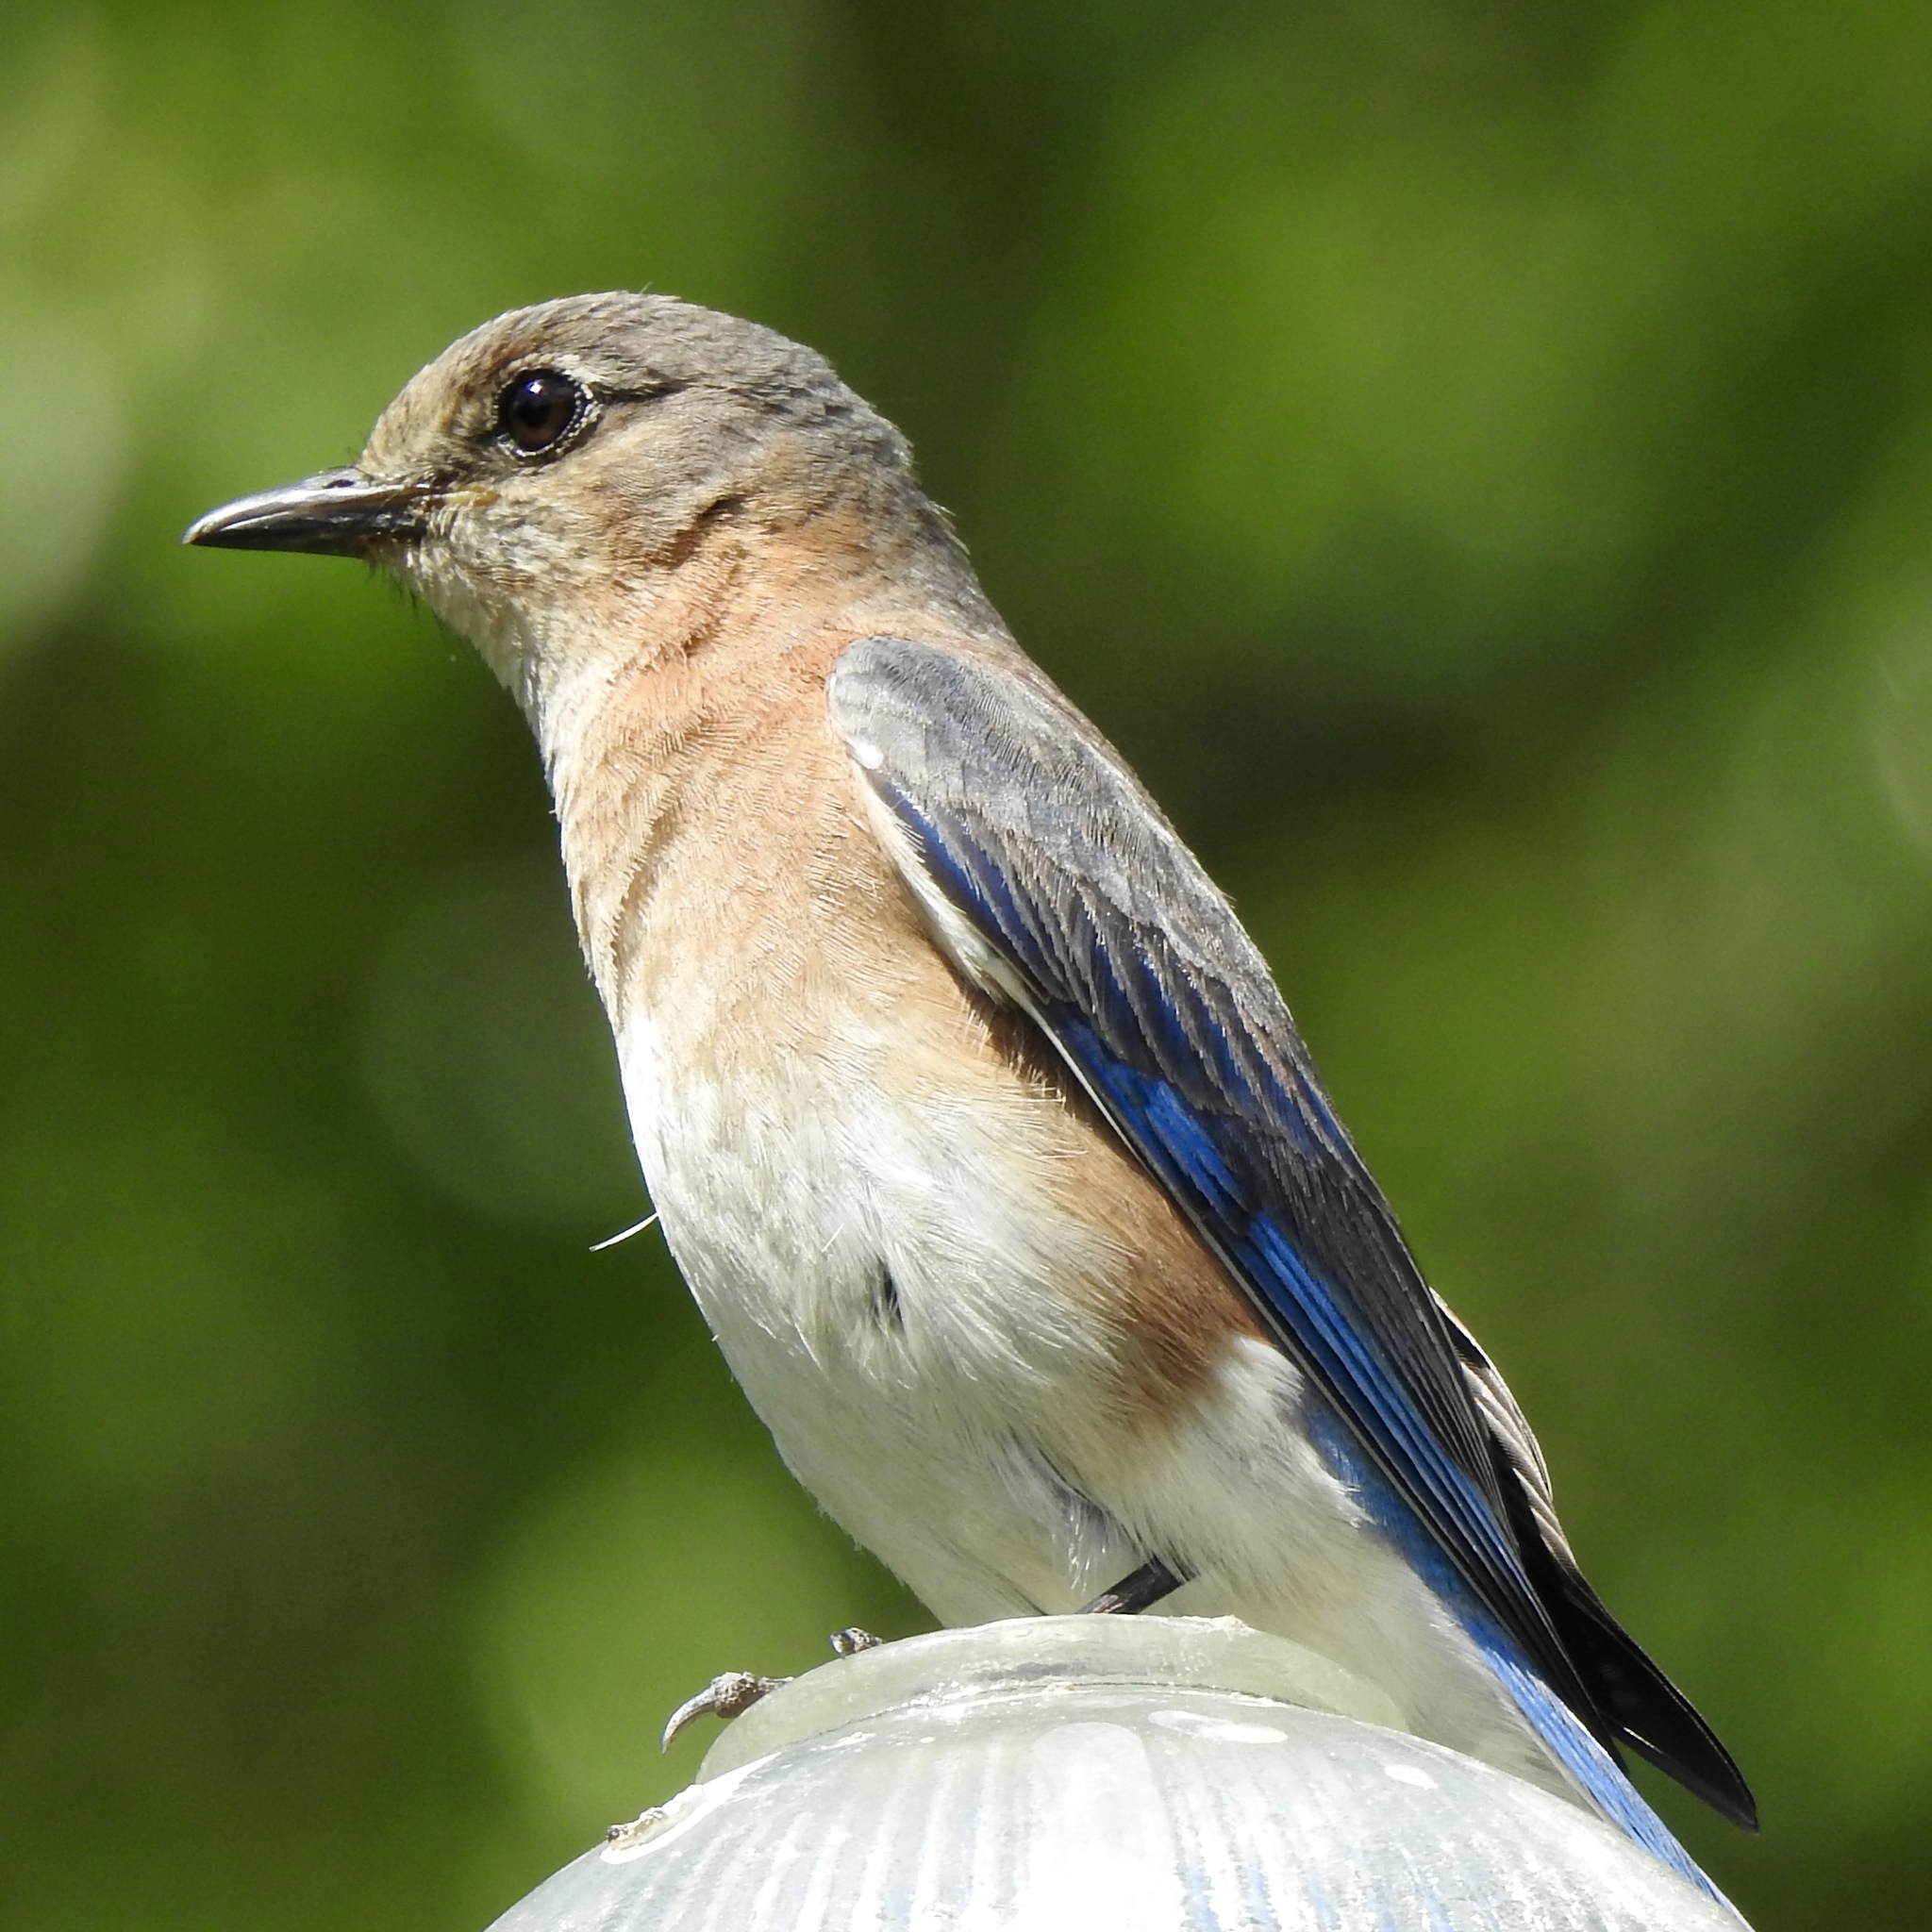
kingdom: Animalia
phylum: Chordata
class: Aves
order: Passeriformes
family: Turdidae
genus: Sialia
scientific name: Sialia sialis
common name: Eastern bluebird
